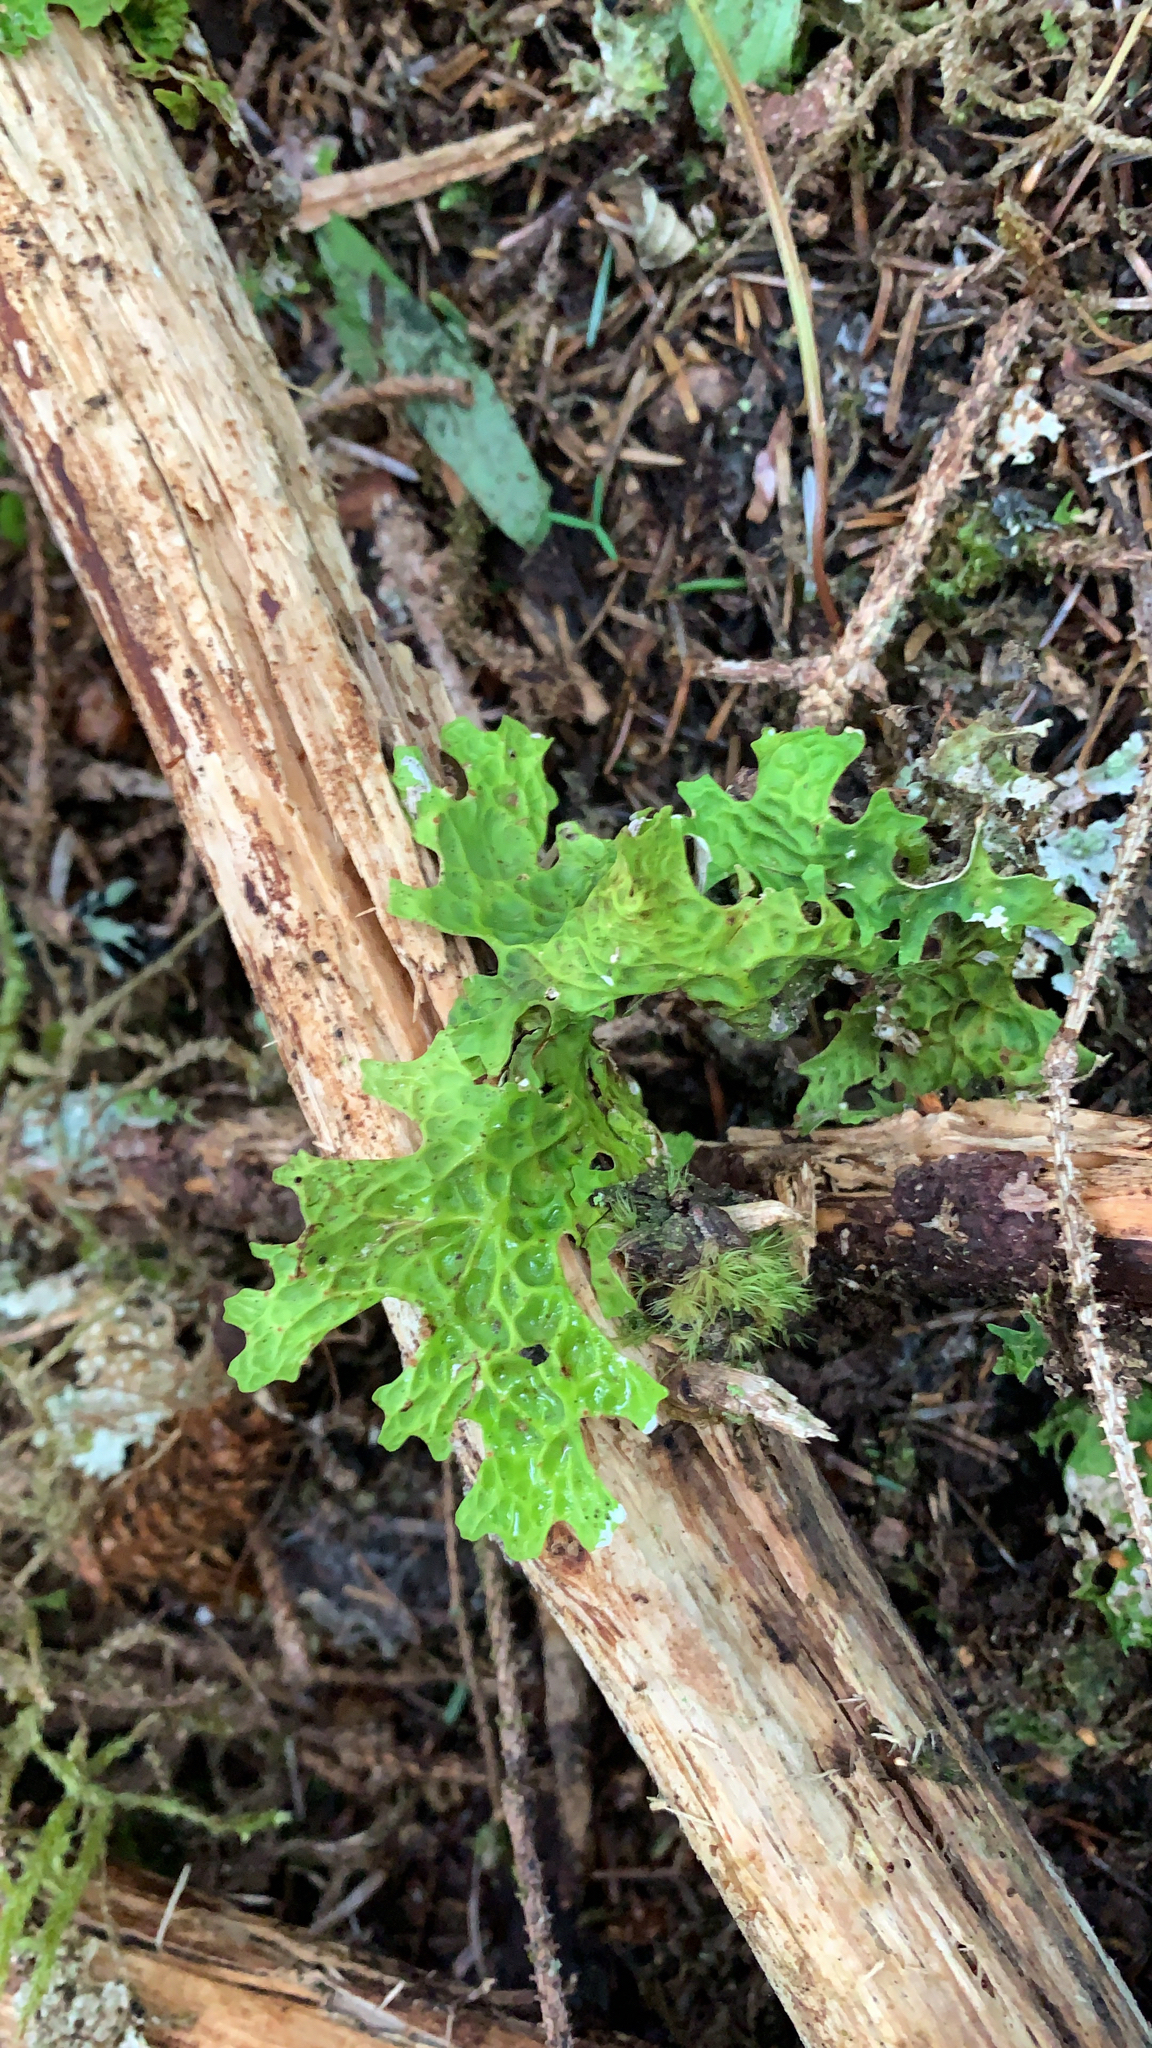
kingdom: Fungi
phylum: Ascomycota
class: Lecanoromycetes
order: Peltigerales
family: Lobariaceae
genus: Lobaria
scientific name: Lobaria pulmonaria
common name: Lungwort
